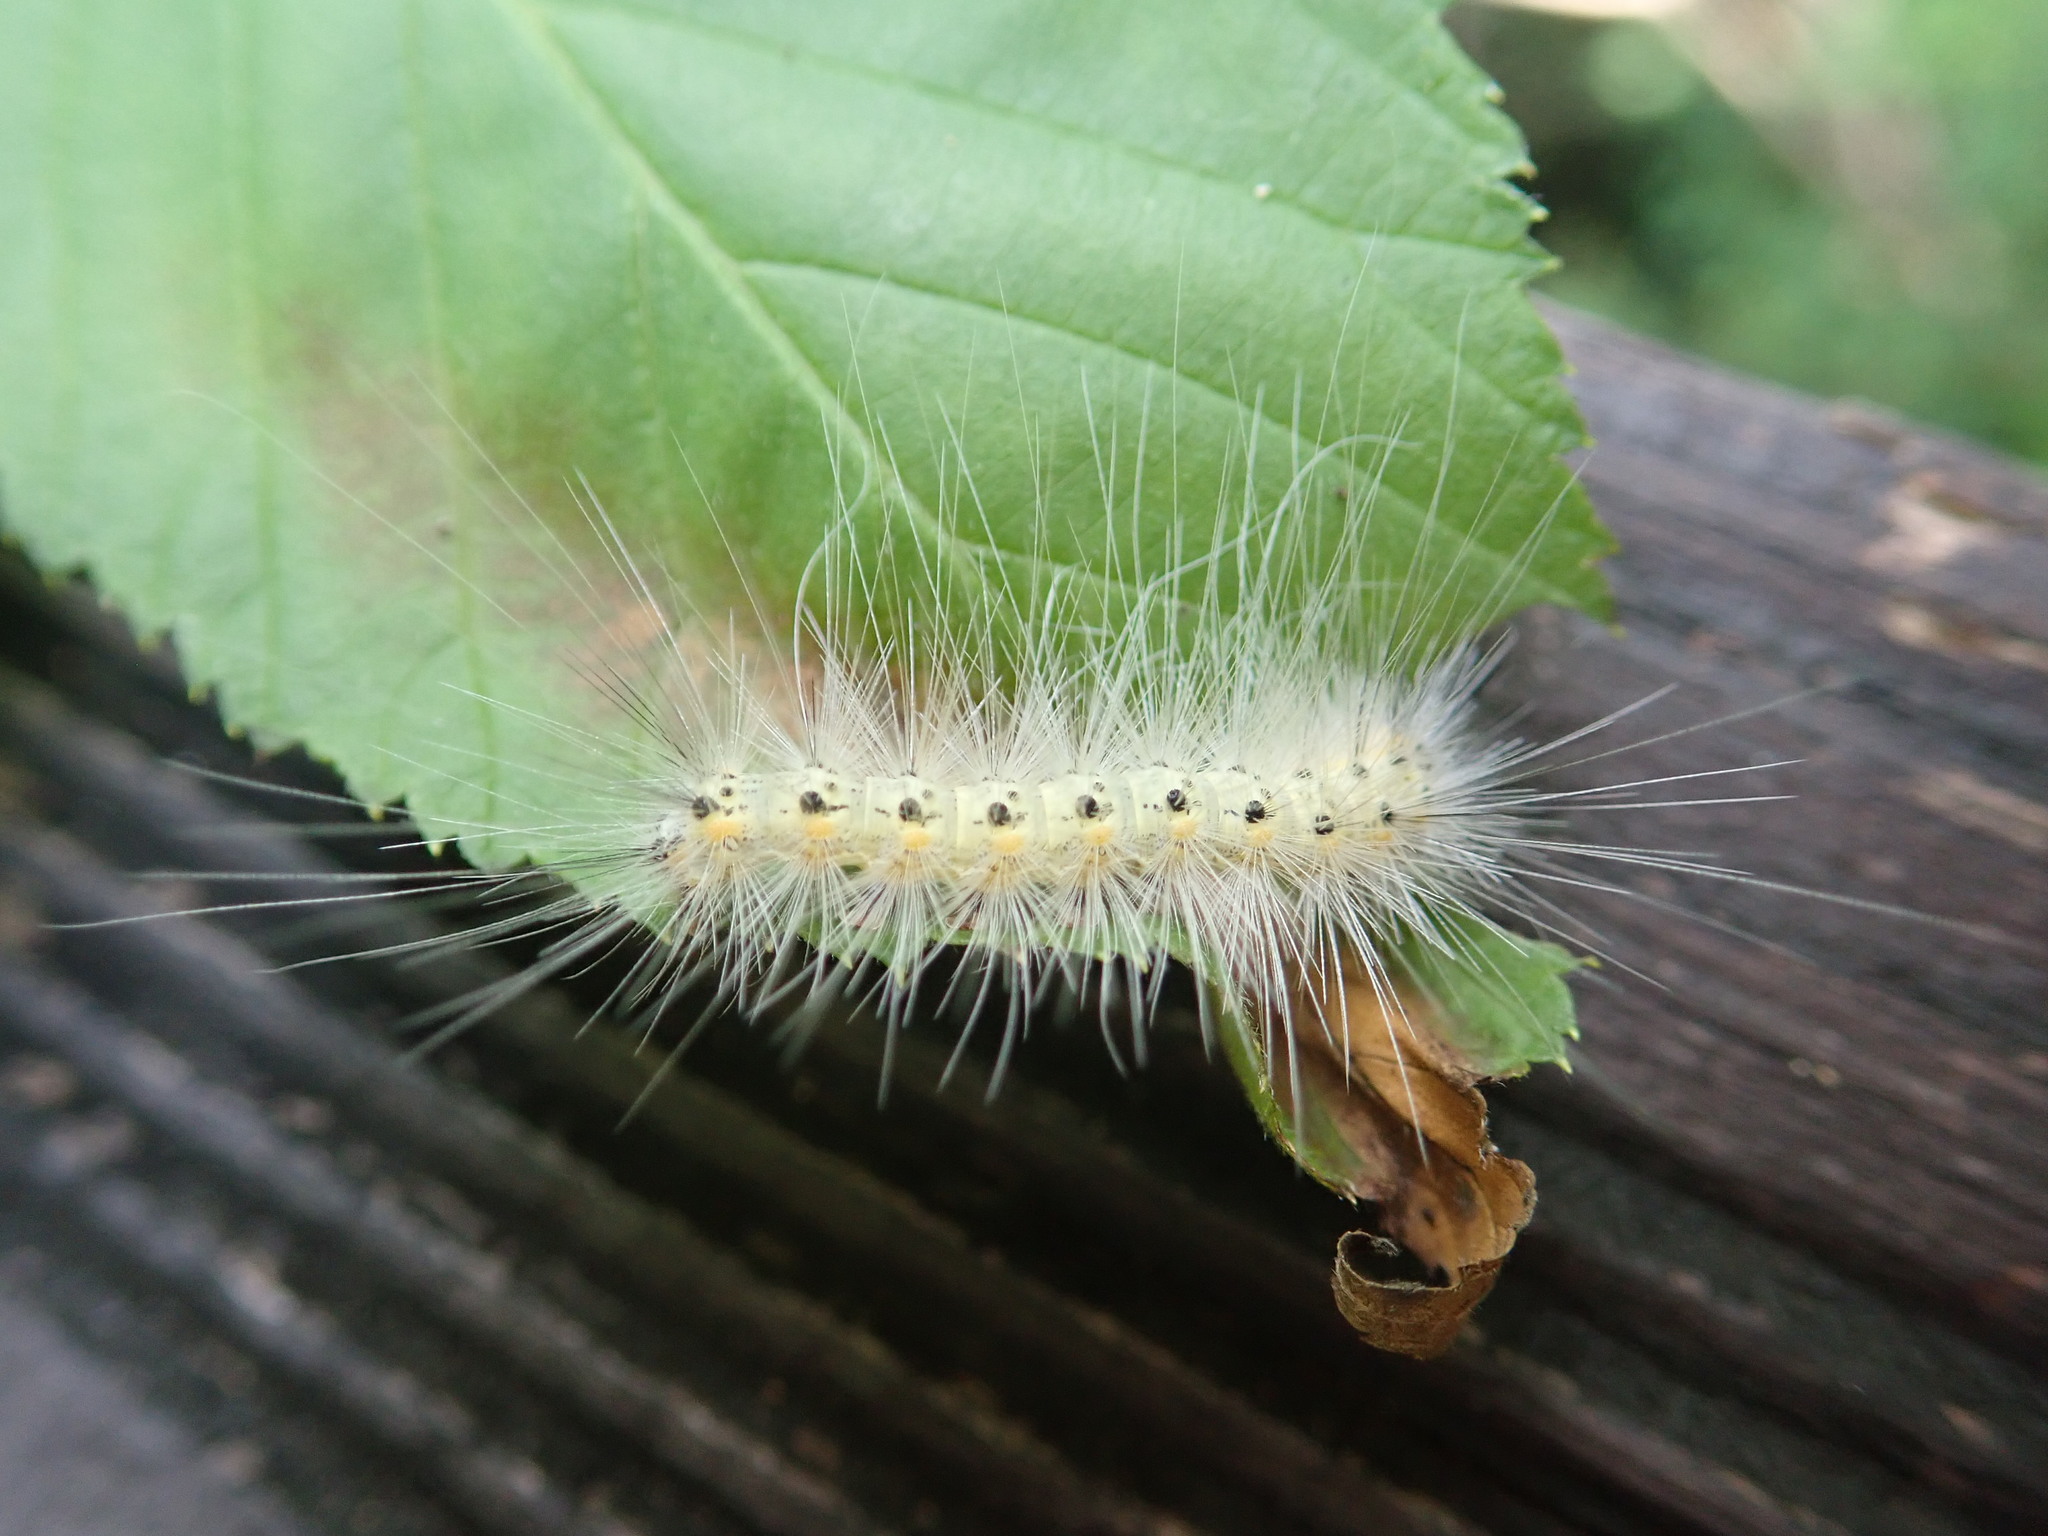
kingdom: Animalia
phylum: Arthropoda
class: Insecta
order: Lepidoptera
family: Erebidae
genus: Hyphantria
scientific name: Hyphantria cunea
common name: American white moth
